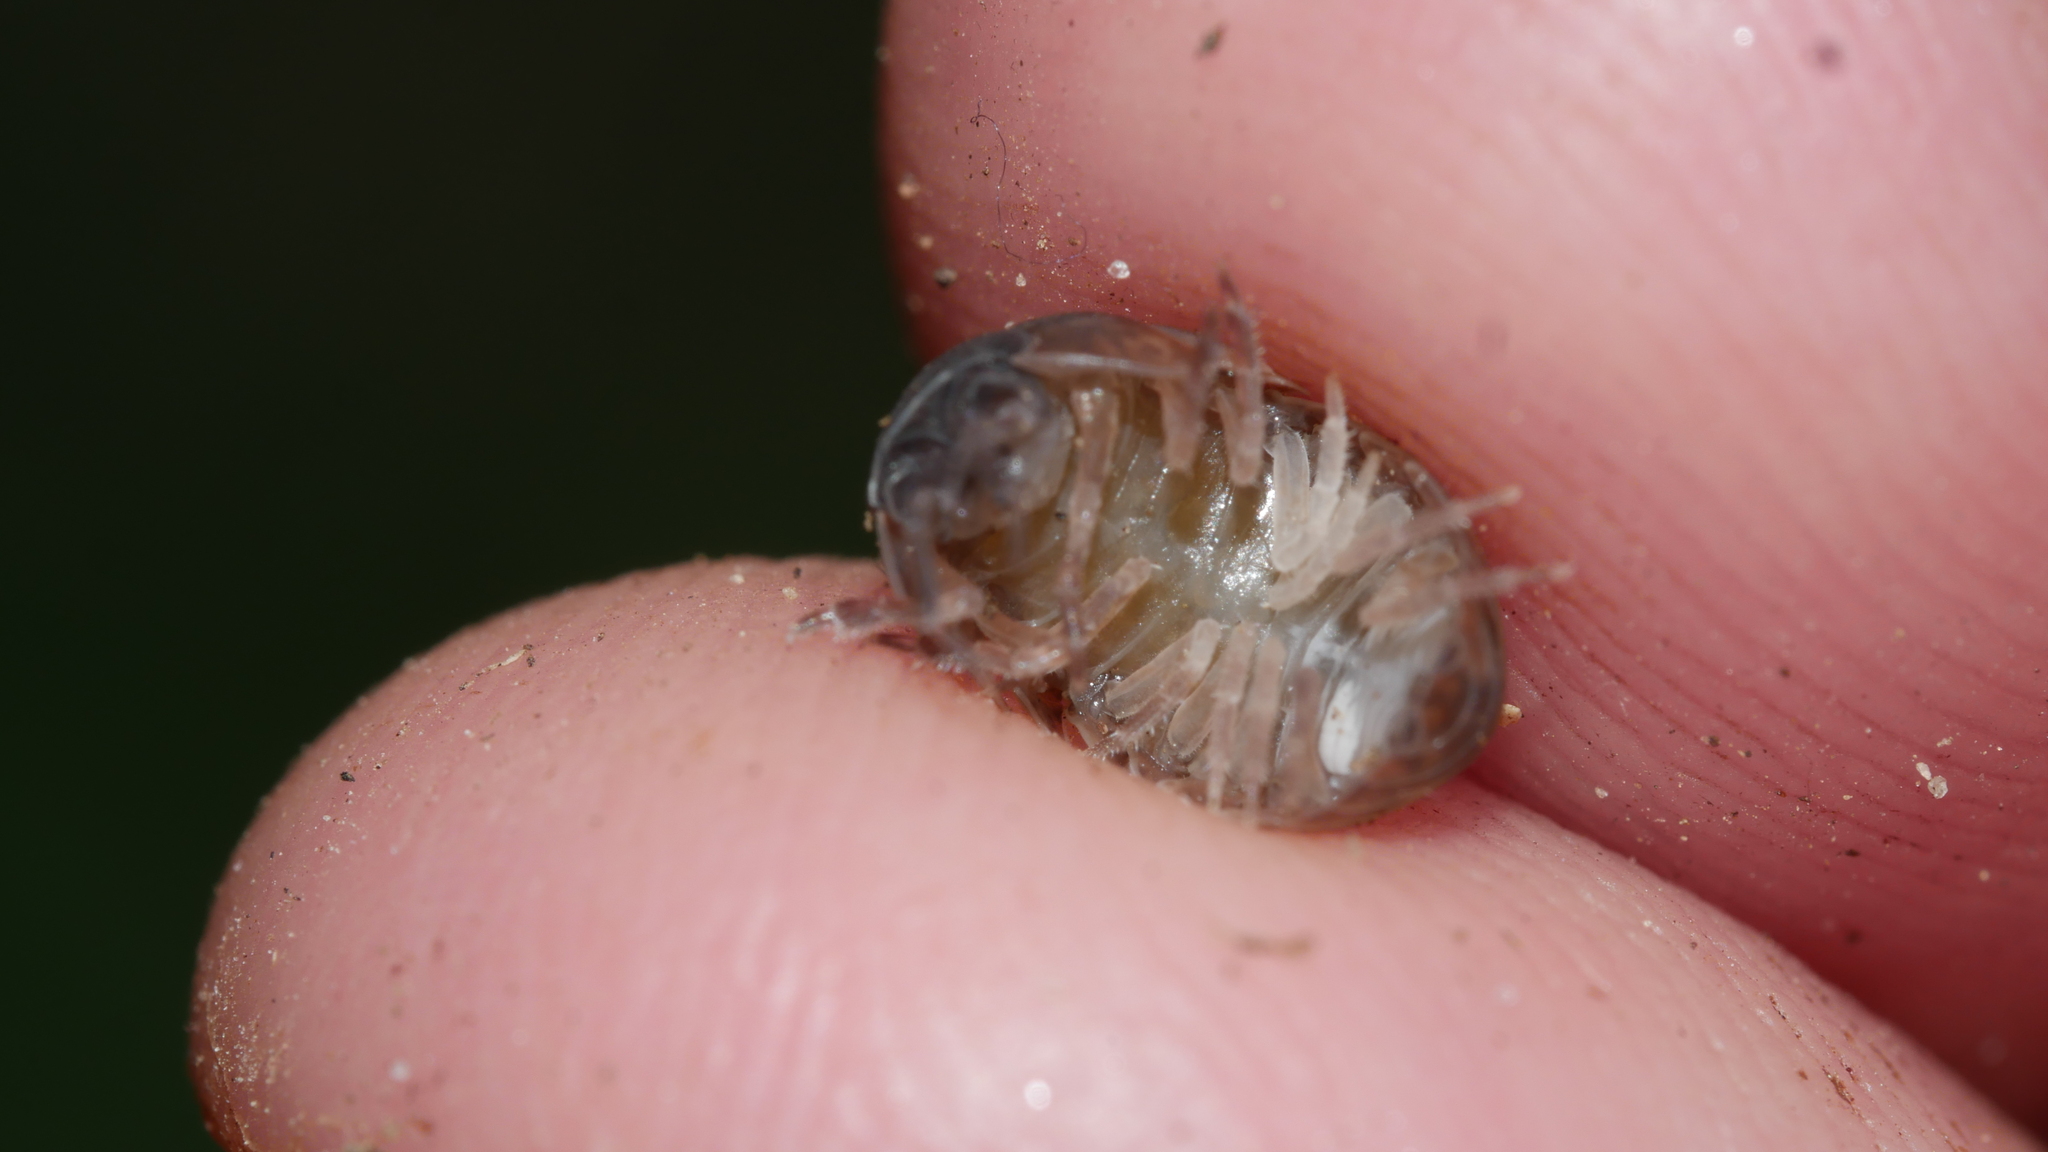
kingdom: Animalia
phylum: Arthropoda
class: Malacostraca
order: Isopoda
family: Armadillidiidae
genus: Armadillidium
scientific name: Armadillidium vulgare
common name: Common pill woodlouse
